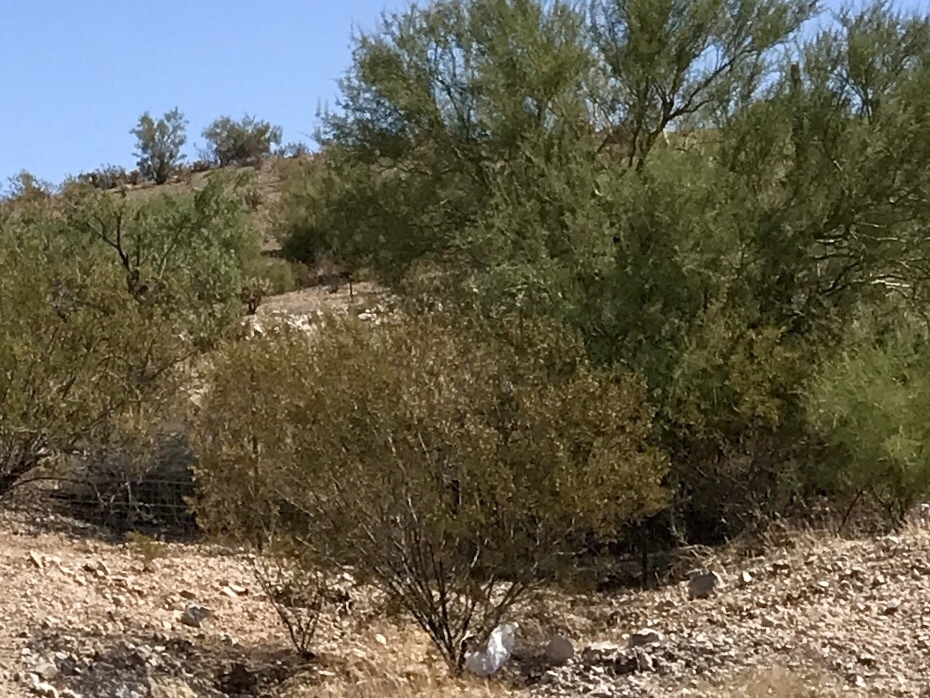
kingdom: Plantae
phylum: Tracheophyta
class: Magnoliopsida
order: Zygophyllales
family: Zygophyllaceae
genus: Larrea
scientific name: Larrea tridentata
